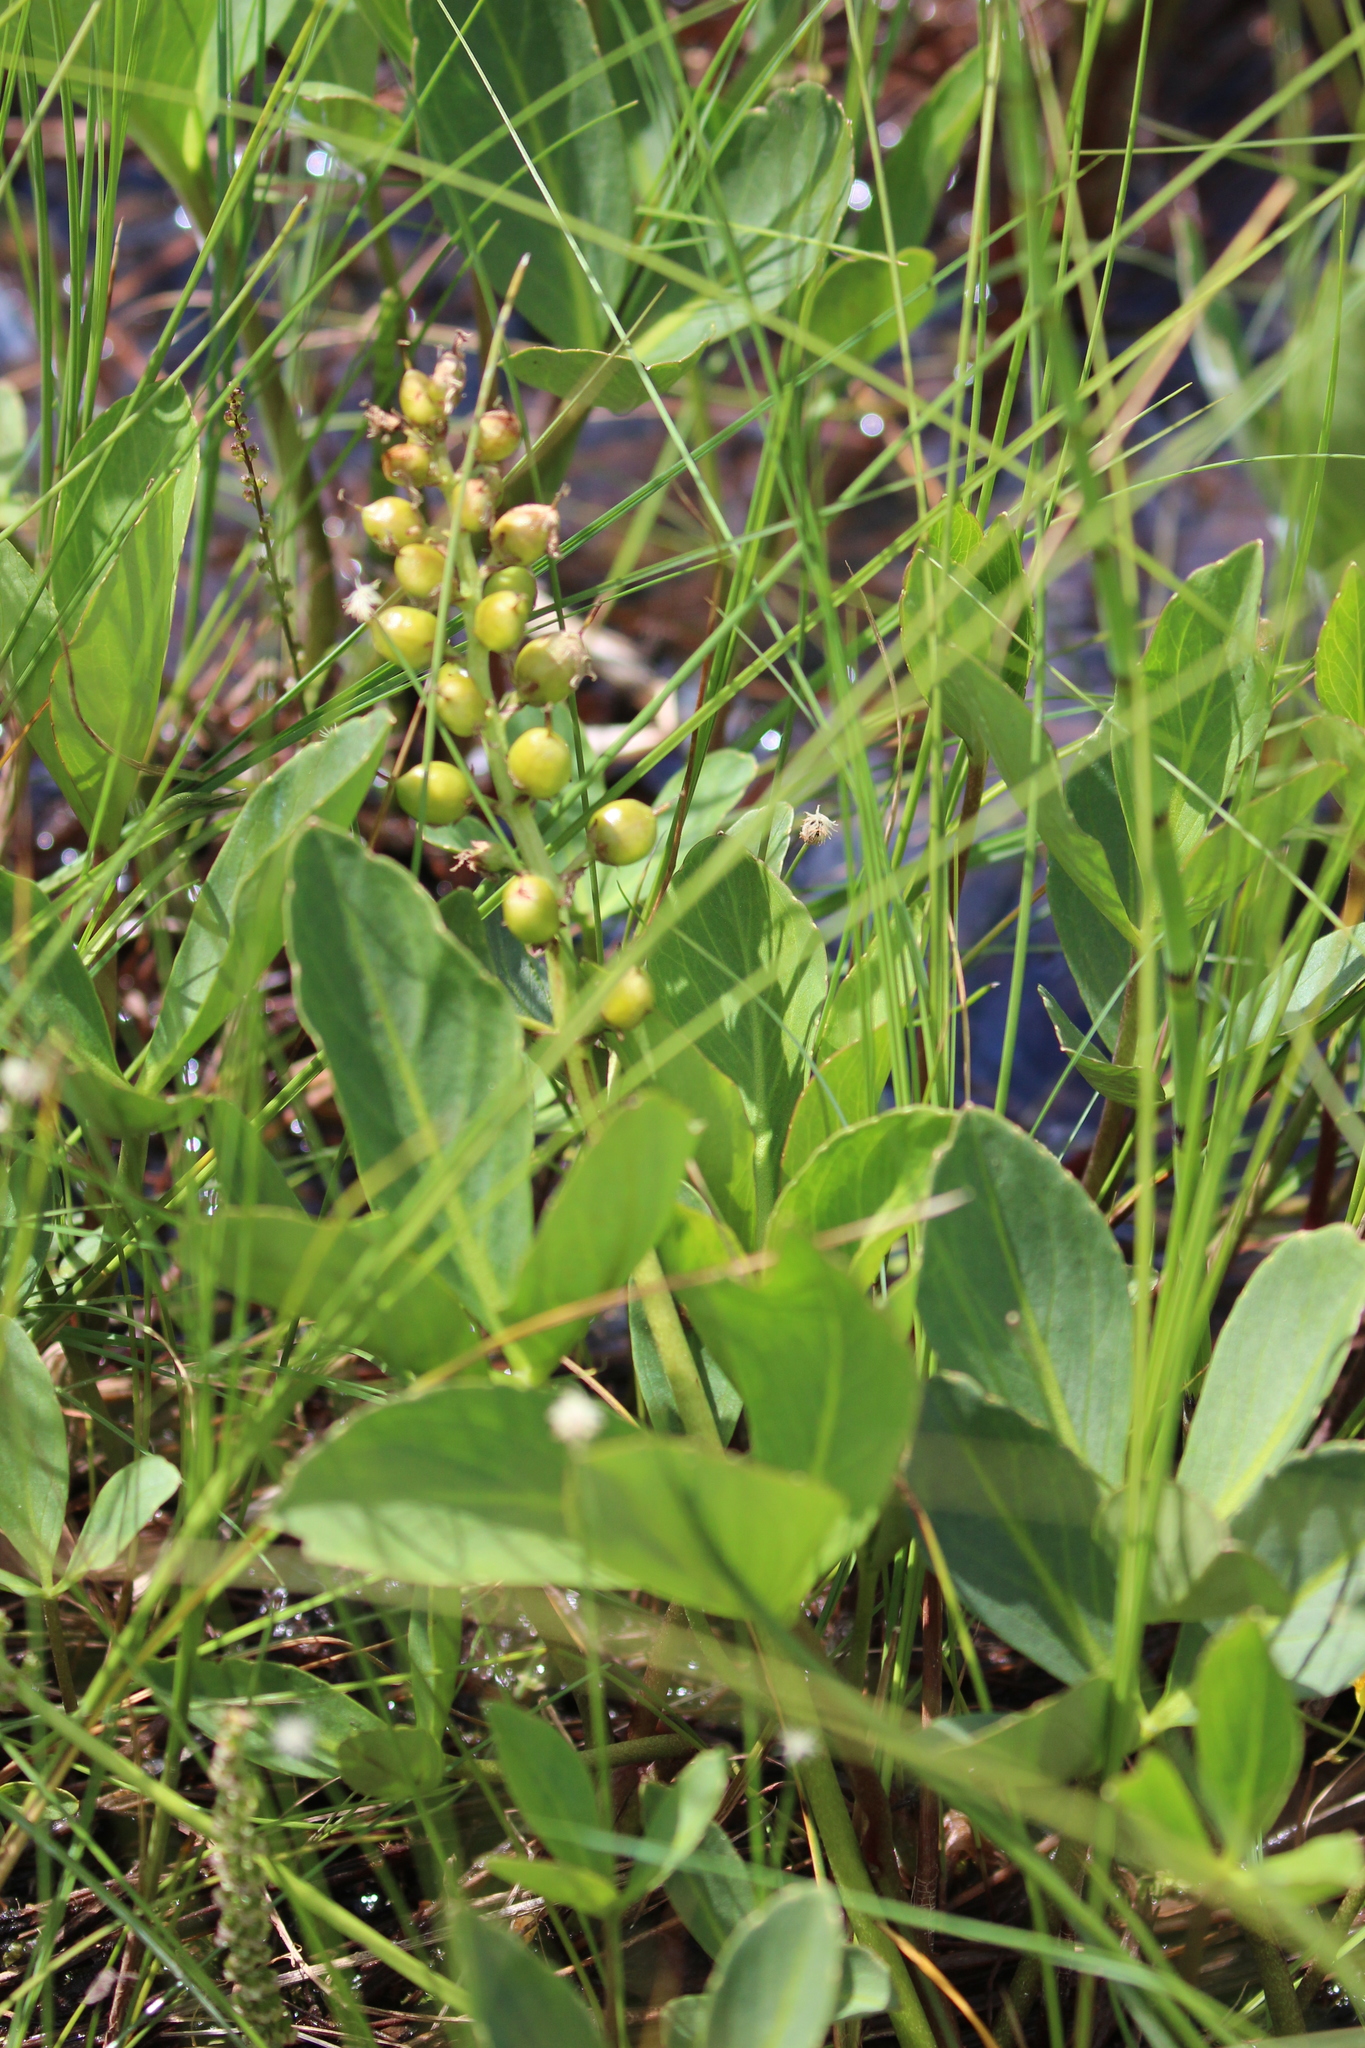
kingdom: Plantae
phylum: Tracheophyta
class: Magnoliopsida
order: Asterales
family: Menyanthaceae
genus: Menyanthes
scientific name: Menyanthes trifoliata
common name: Bogbean
